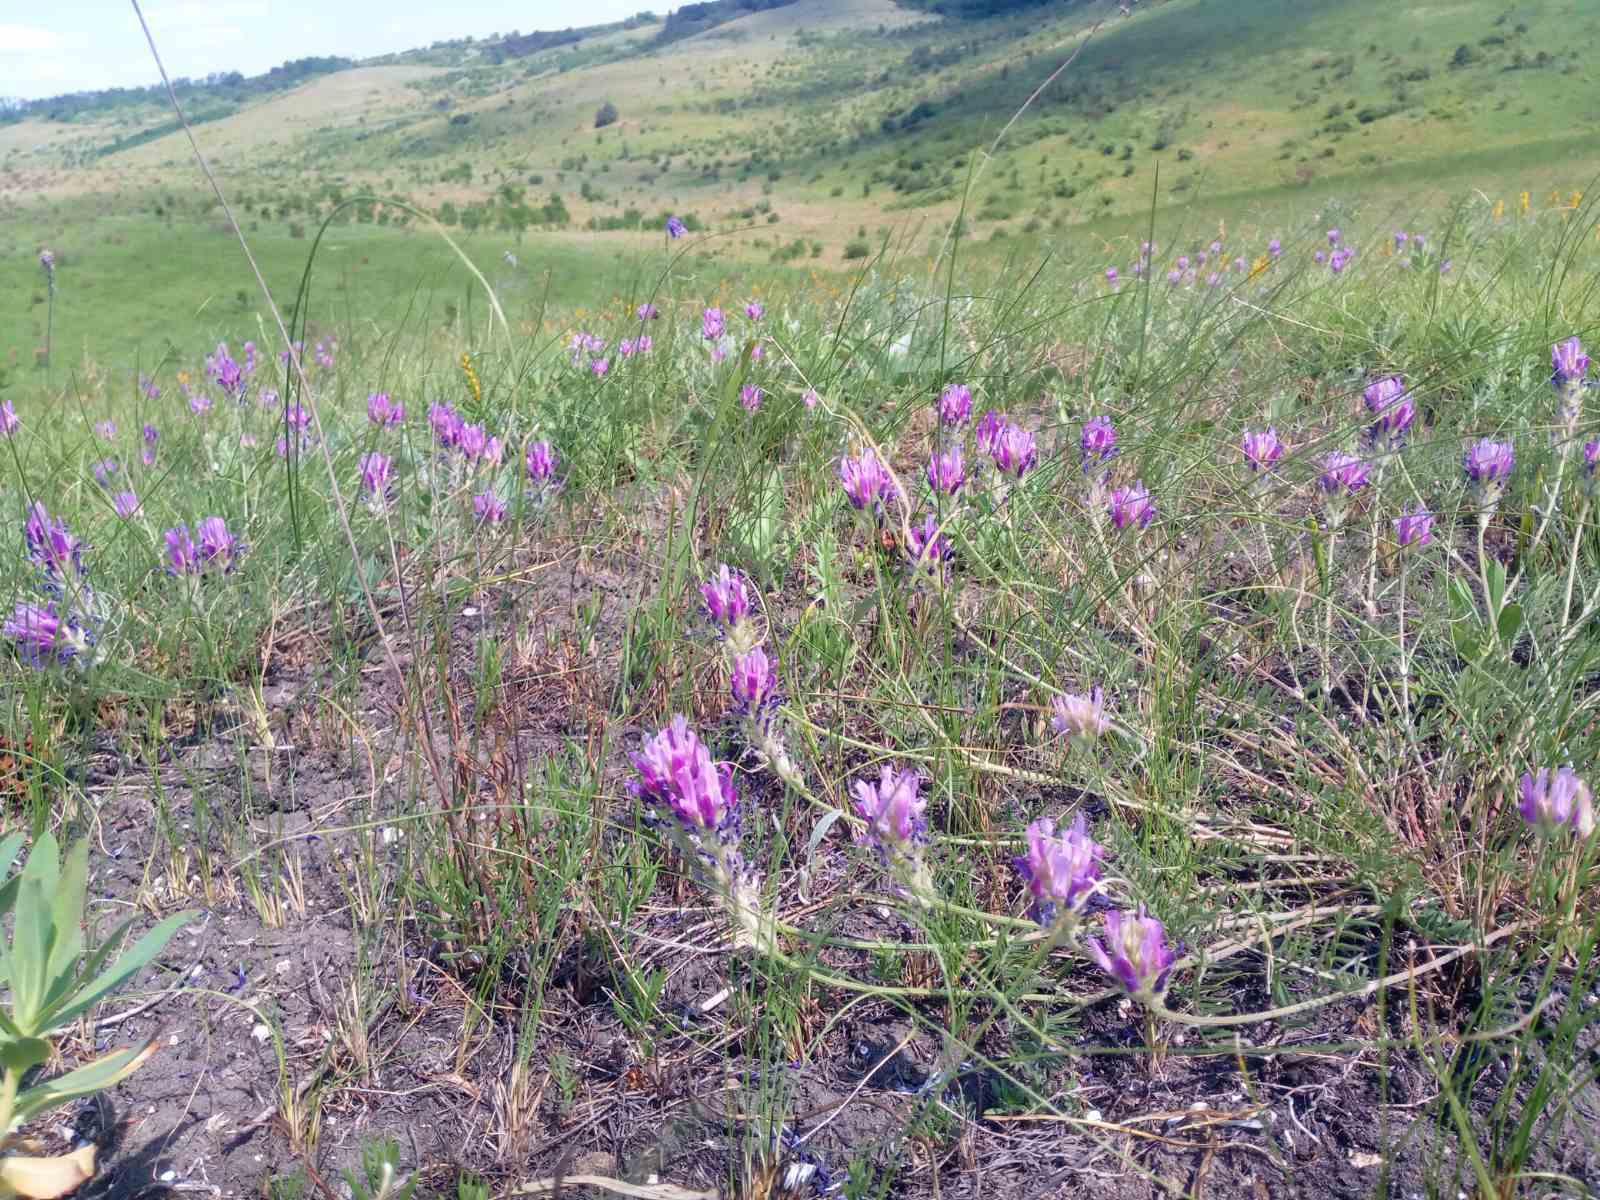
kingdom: Plantae
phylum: Tracheophyta
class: Magnoliopsida
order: Fabales
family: Fabaceae
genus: Astragalus
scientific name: Astragalus onobrychis
